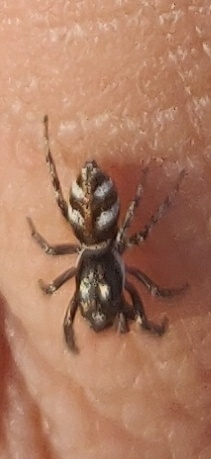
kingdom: Animalia
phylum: Arthropoda
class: Arachnida
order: Araneae
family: Salticidae
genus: Salticus
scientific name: Salticus scenicus
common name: Zebra jumper
